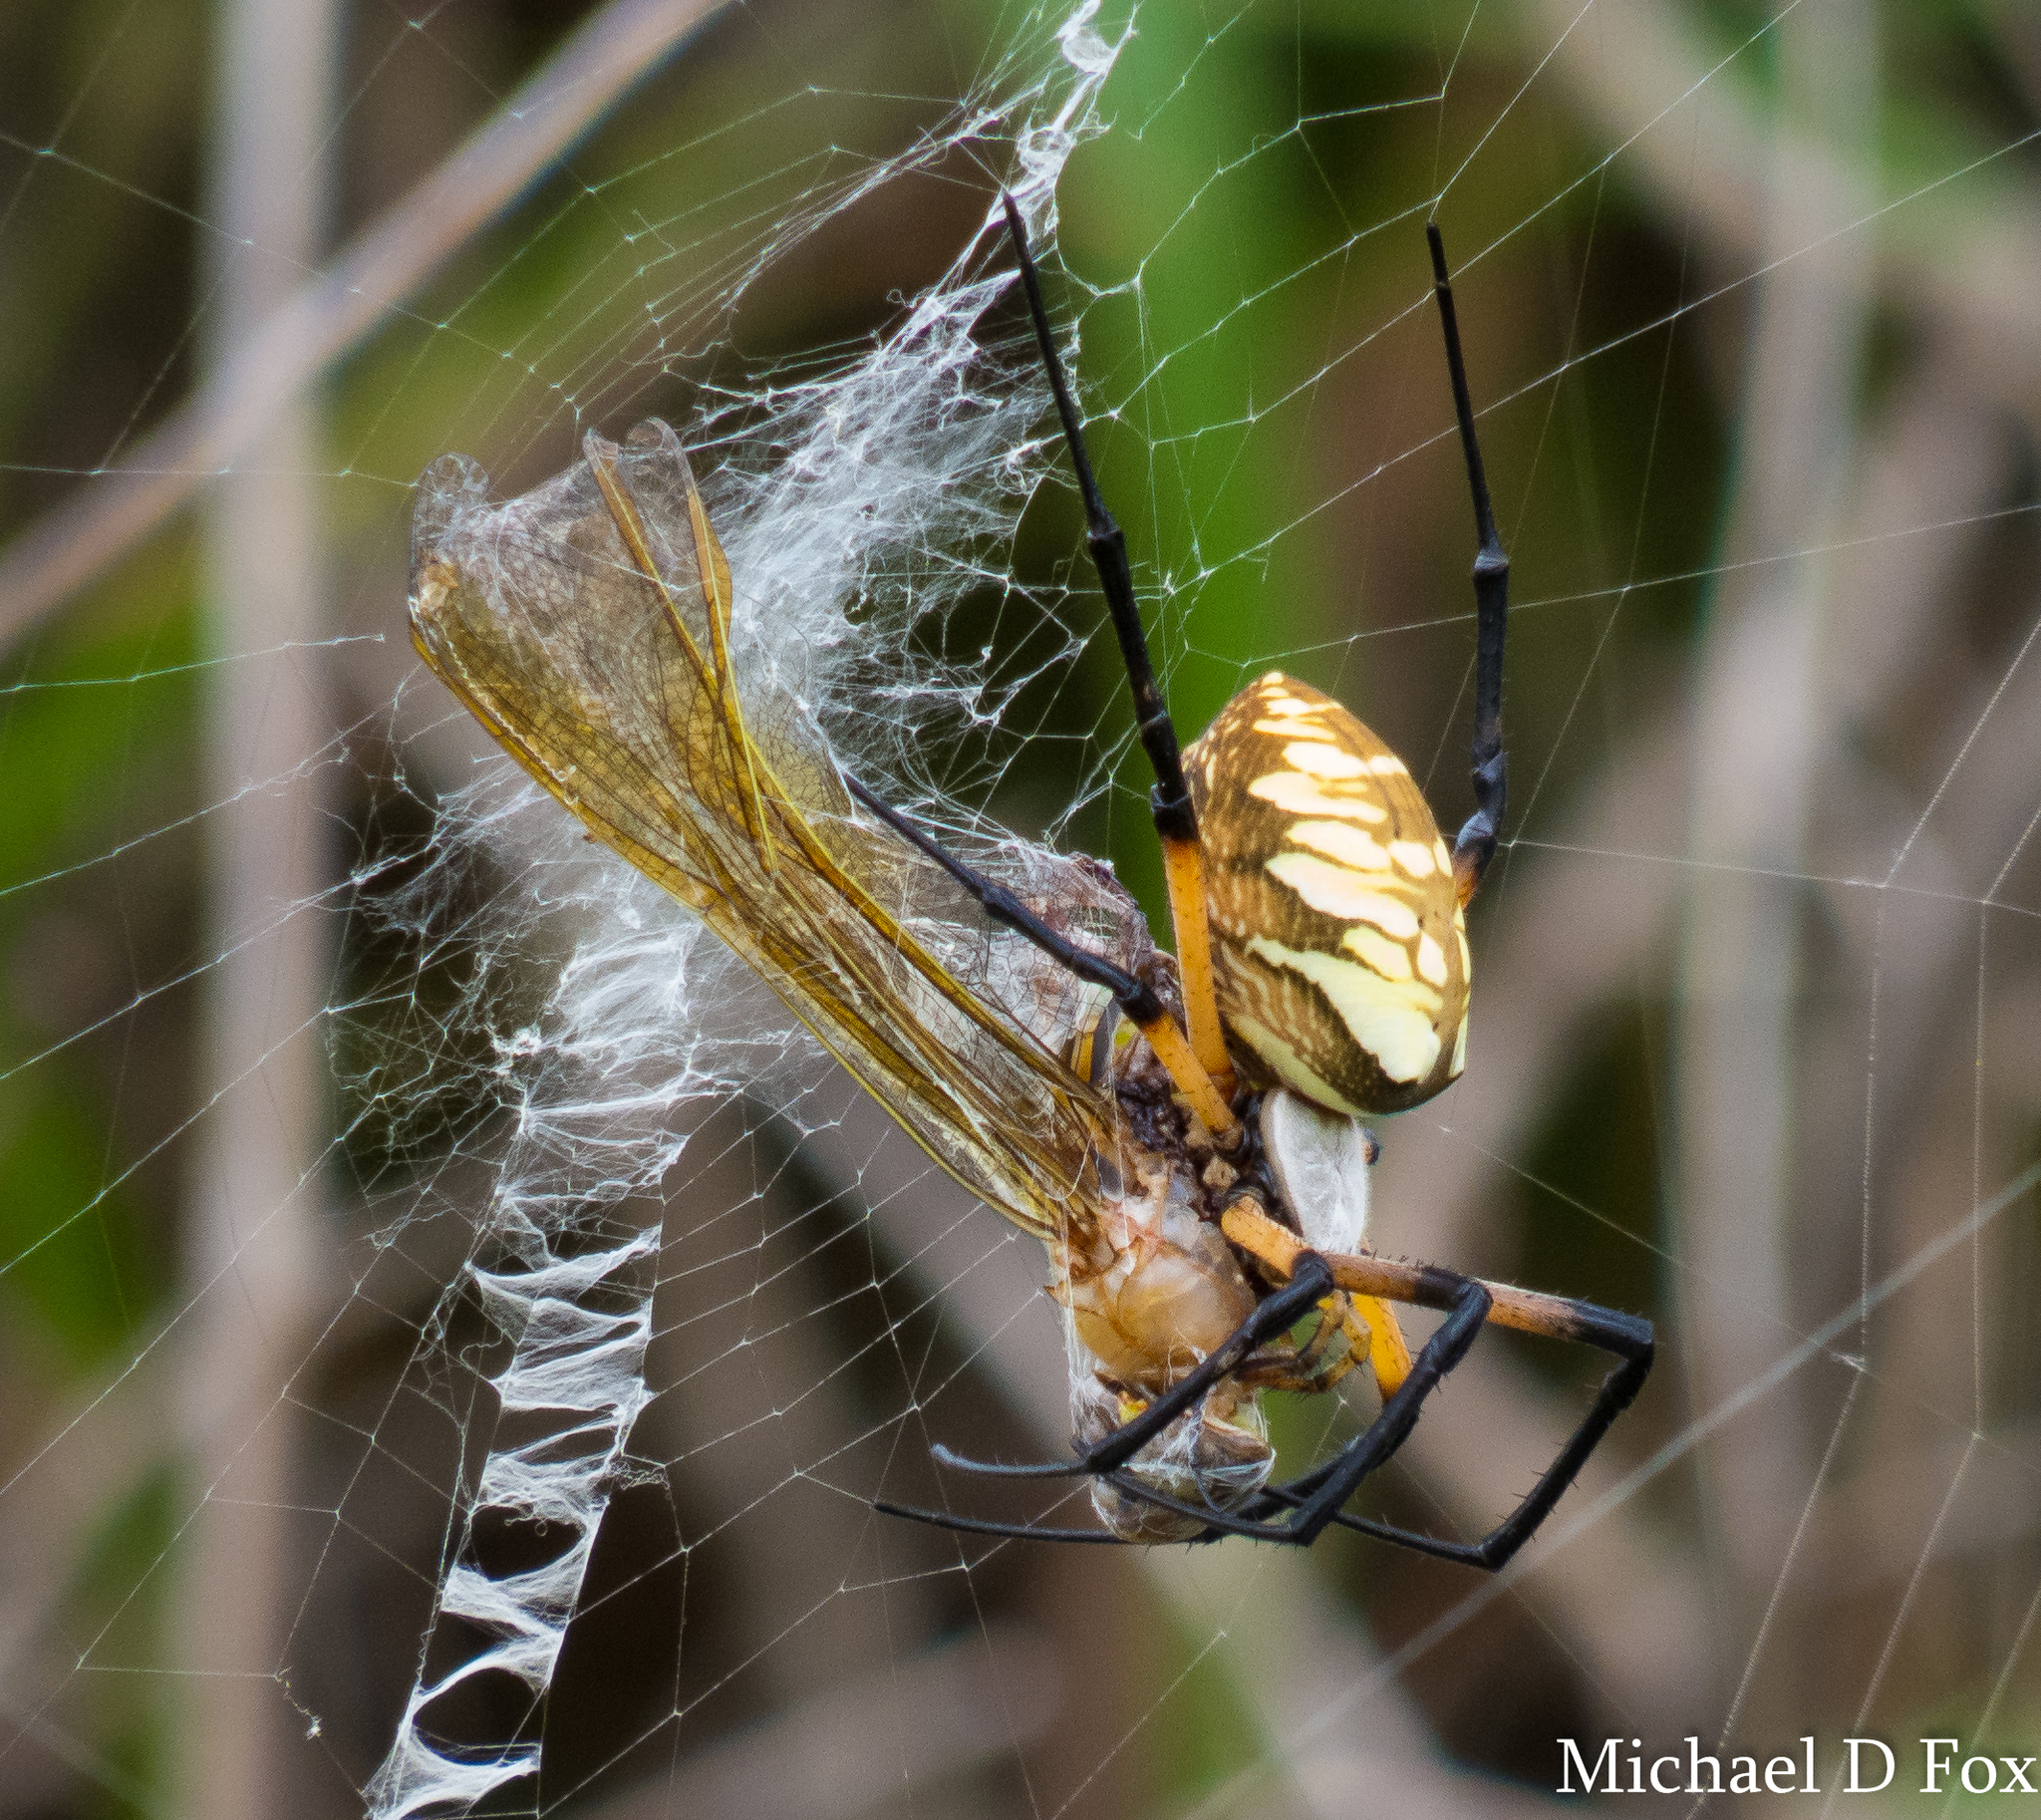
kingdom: Animalia
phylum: Arthropoda
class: Arachnida
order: Araneae
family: Araneidae
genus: Argiope
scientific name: Argiope aurantia
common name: Orb weavers
